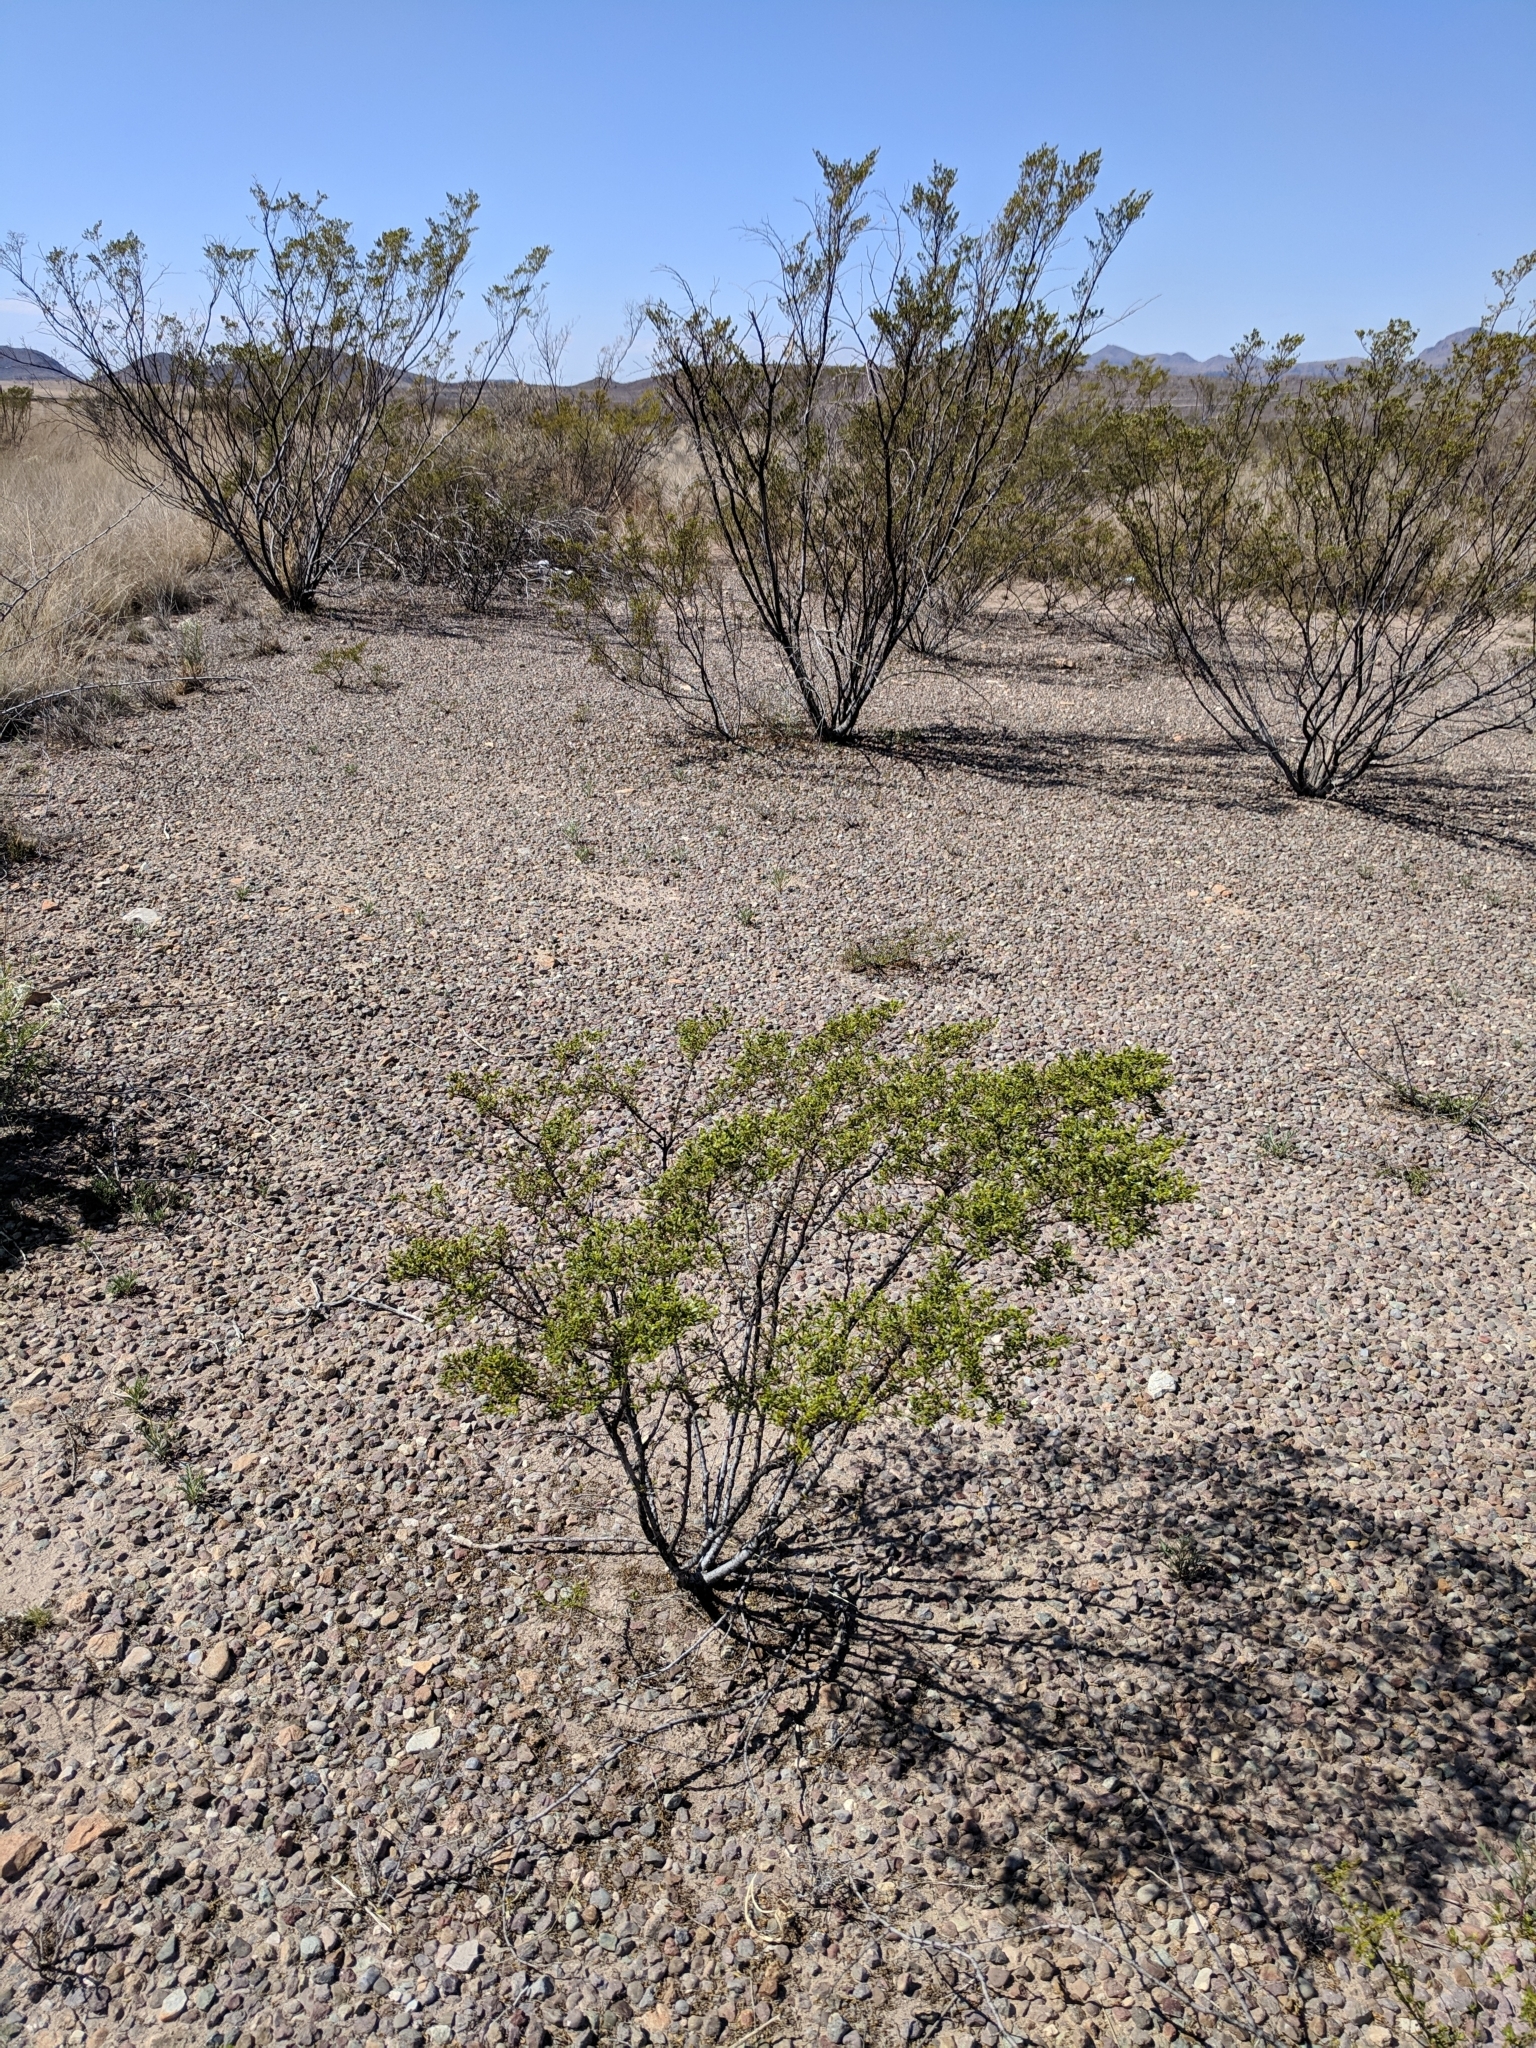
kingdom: Plantae
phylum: Tracheophyta
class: Magnoliopsida
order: Zygophyllales
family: Zygophyllaceae
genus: Larrea
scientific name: Larrea tridentata
